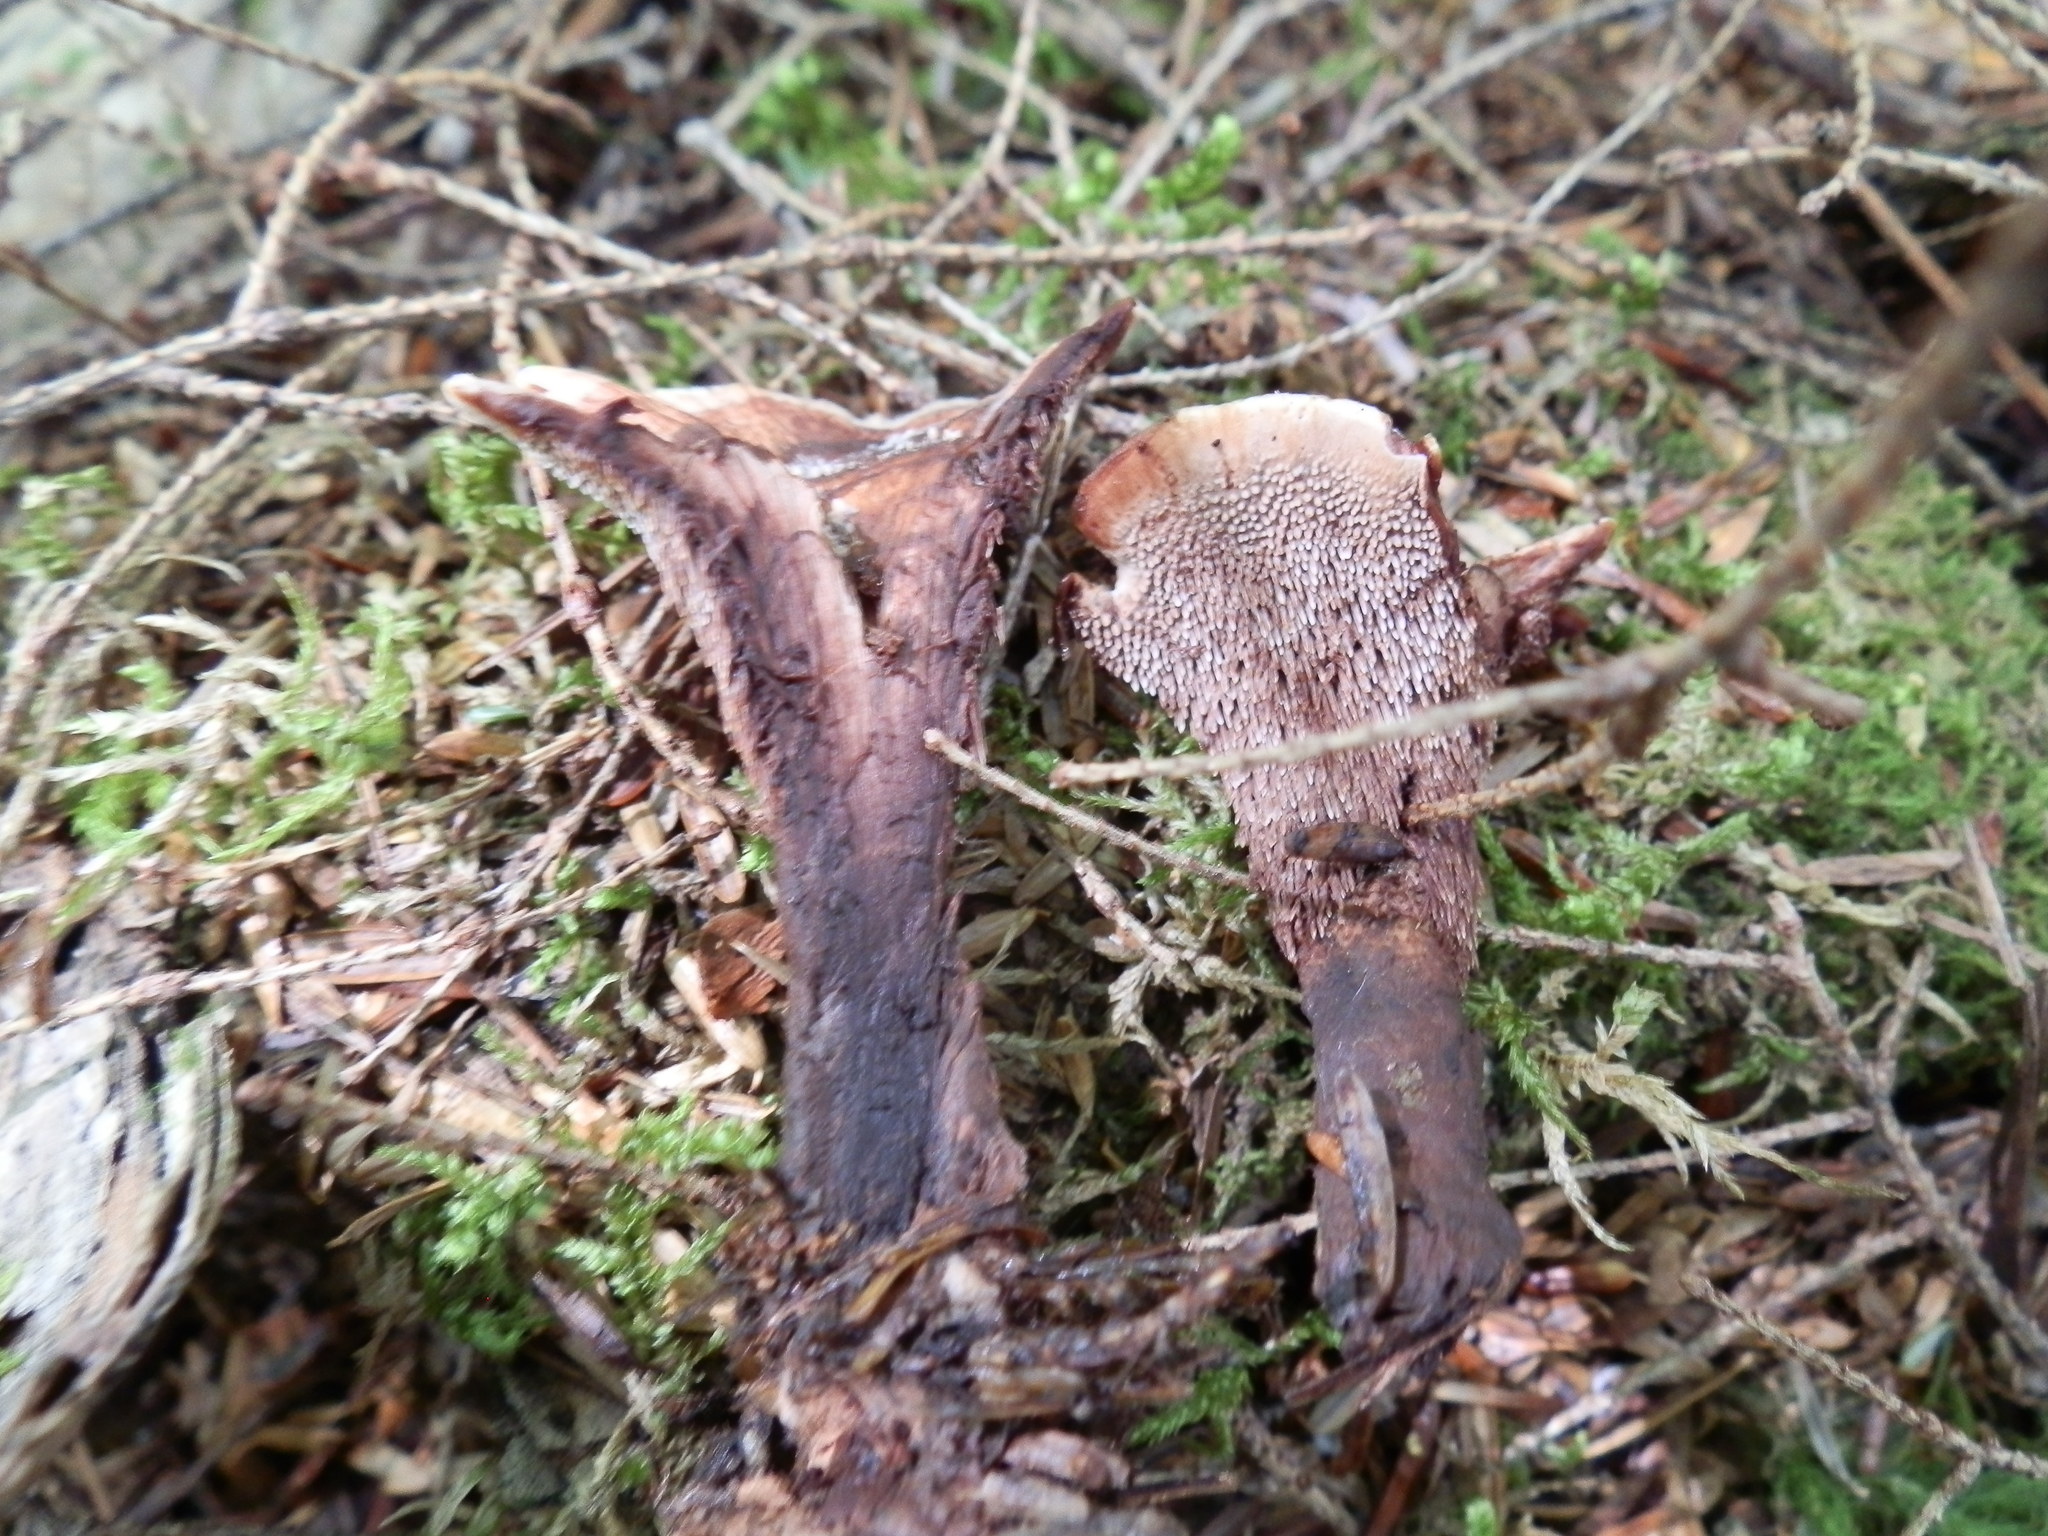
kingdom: Fungi
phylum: Basidiomycota
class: Agaricomycetes
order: Thelephorales
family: Bankeraceae
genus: Hydnellum
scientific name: Hydnellum concrescens
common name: Zoned tooth
